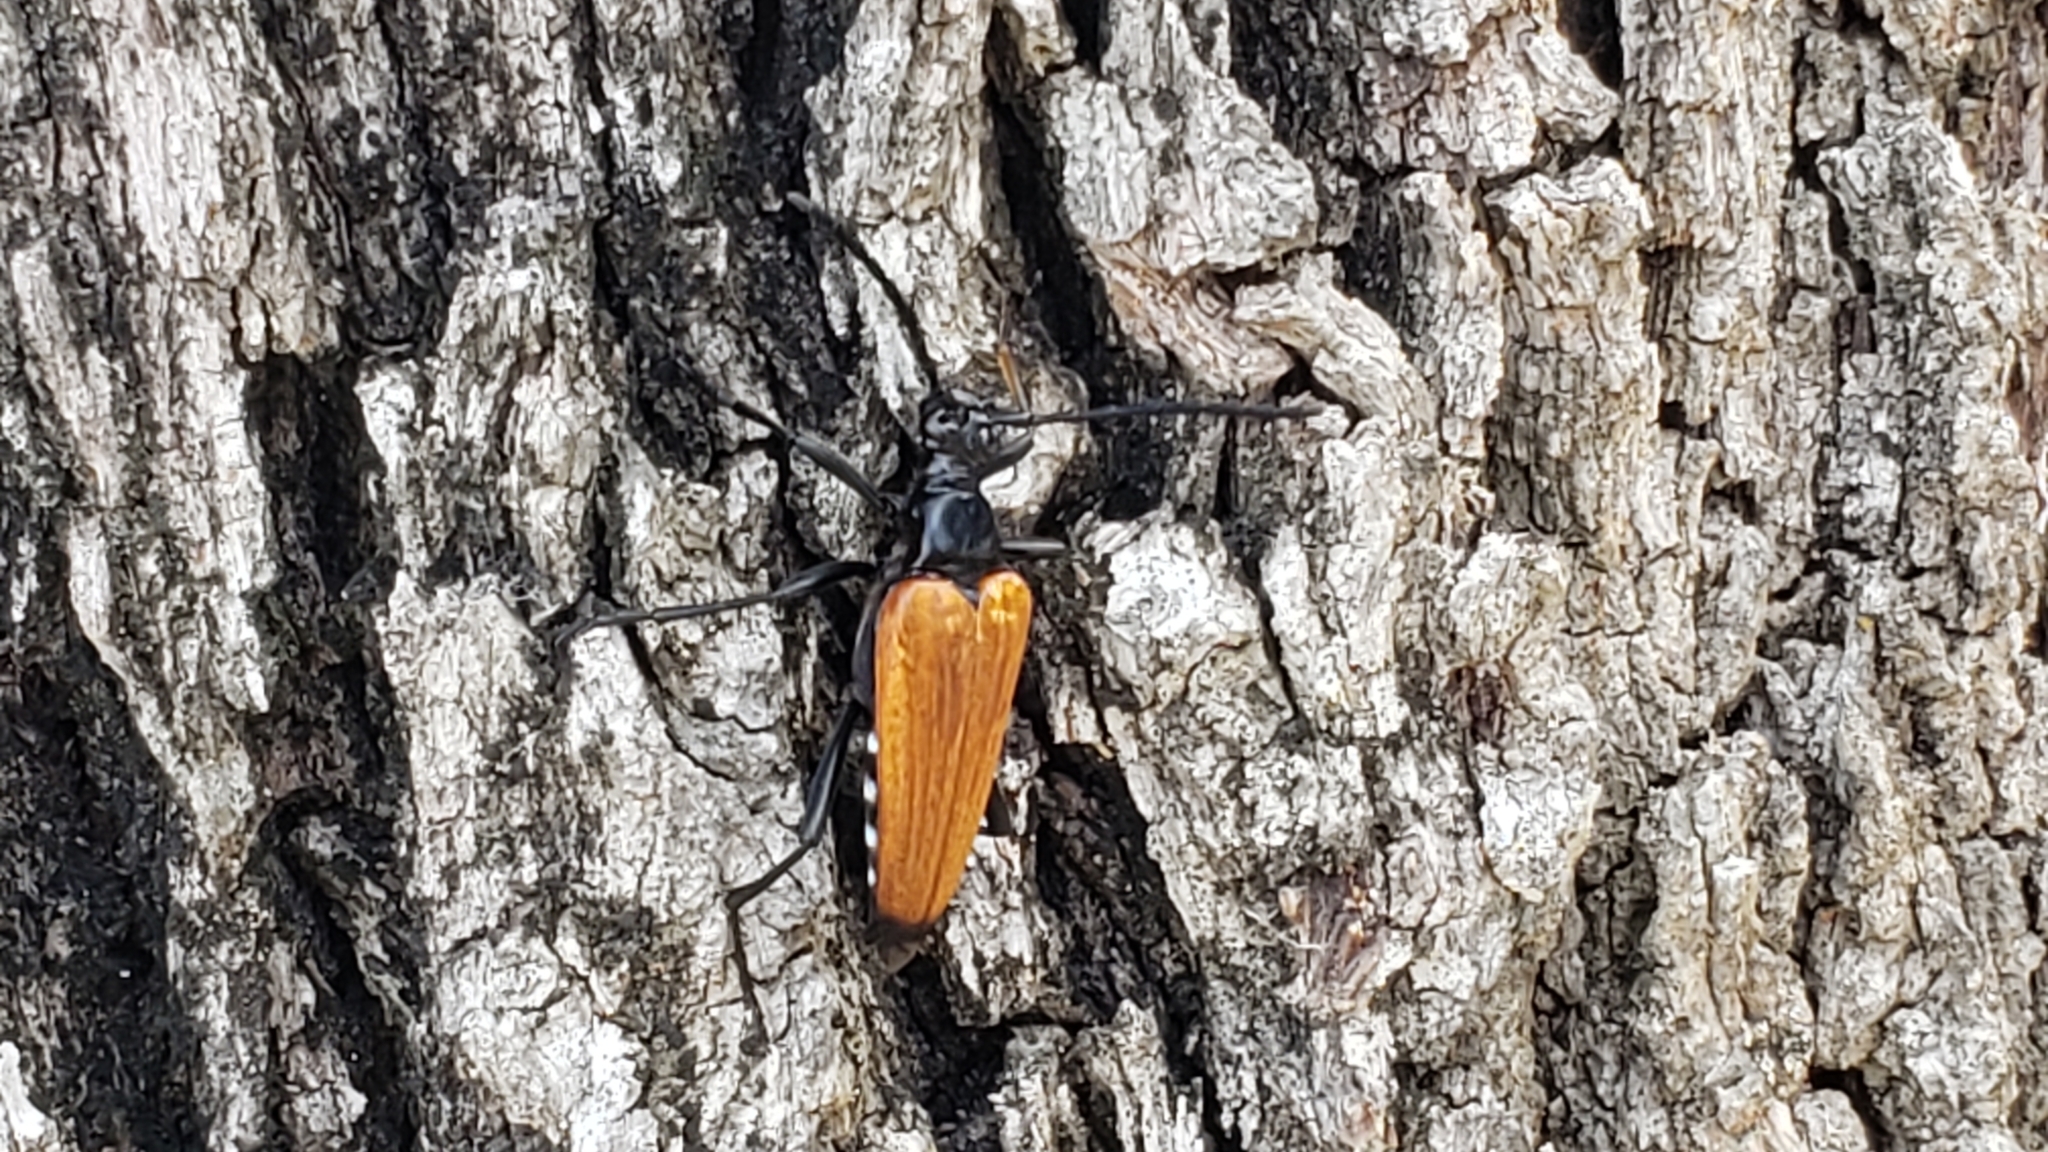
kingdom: Animalia
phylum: Arthropoda
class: Insecta
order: Coleoptera
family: Cerambycidae
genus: Stenelytrana
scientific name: Stenelytrana gigas
